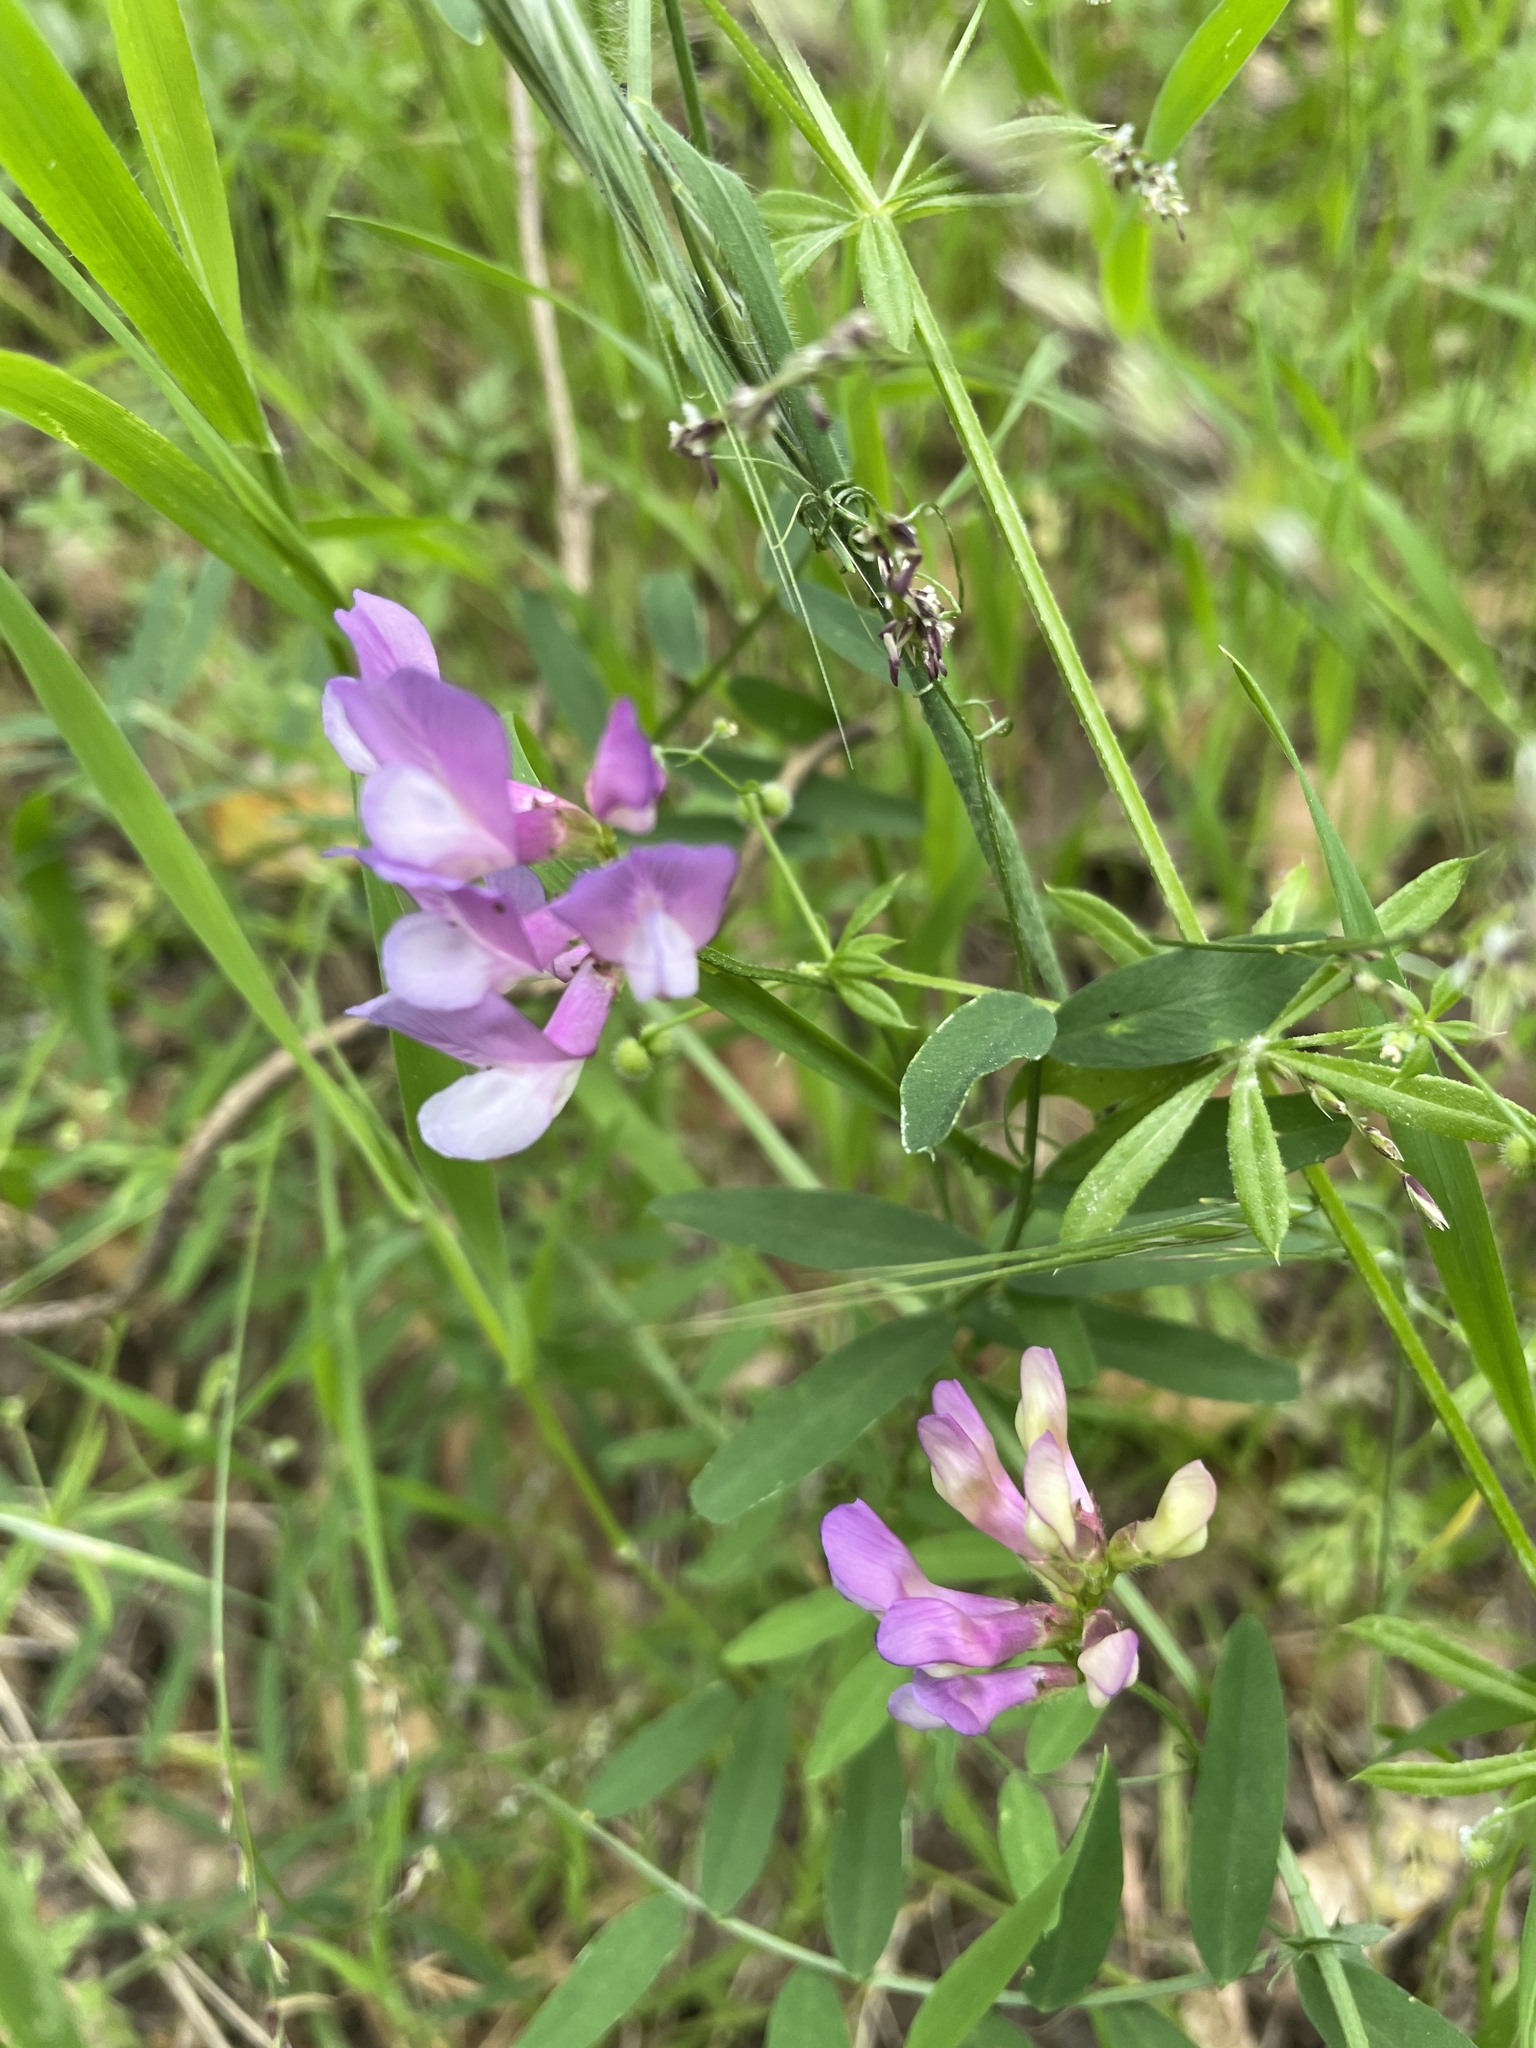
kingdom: Plantae
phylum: Tracheophyta
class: Magnoliopsida
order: Fabales
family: Fabaceae
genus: Vicia
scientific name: Vicia americana
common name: American vetch
